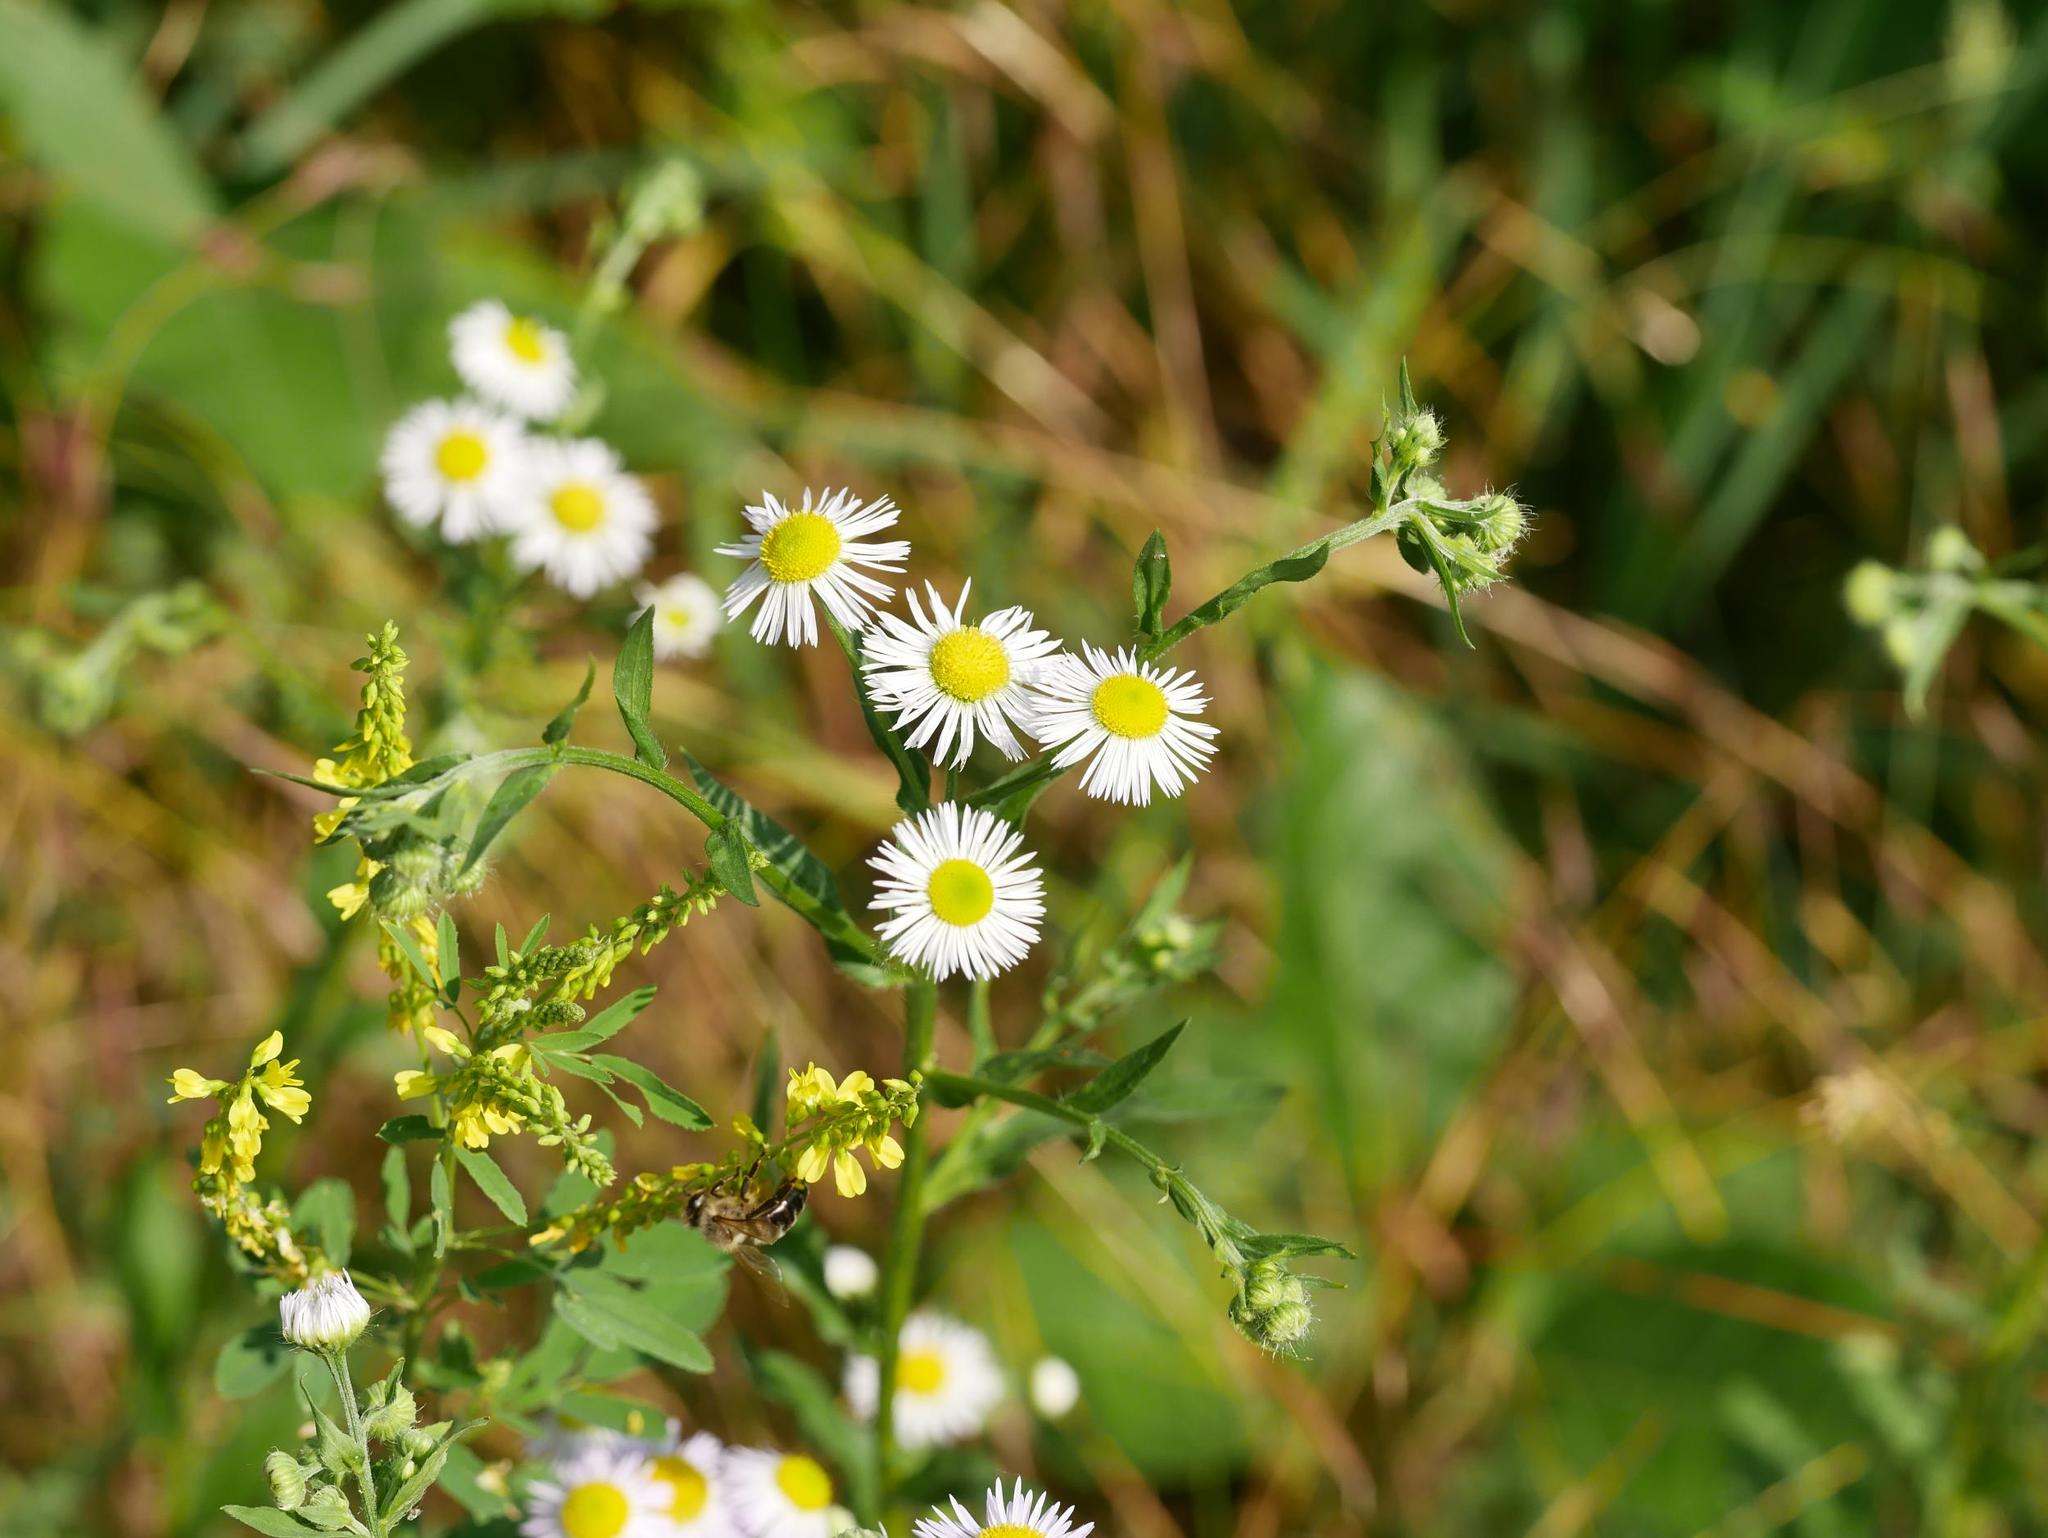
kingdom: Plantae
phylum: Tracheophyta
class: Magnoliopsida
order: Asterales
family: Asteraceae
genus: Erigeron
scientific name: Erigeron annuus
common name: Tall fleabane
